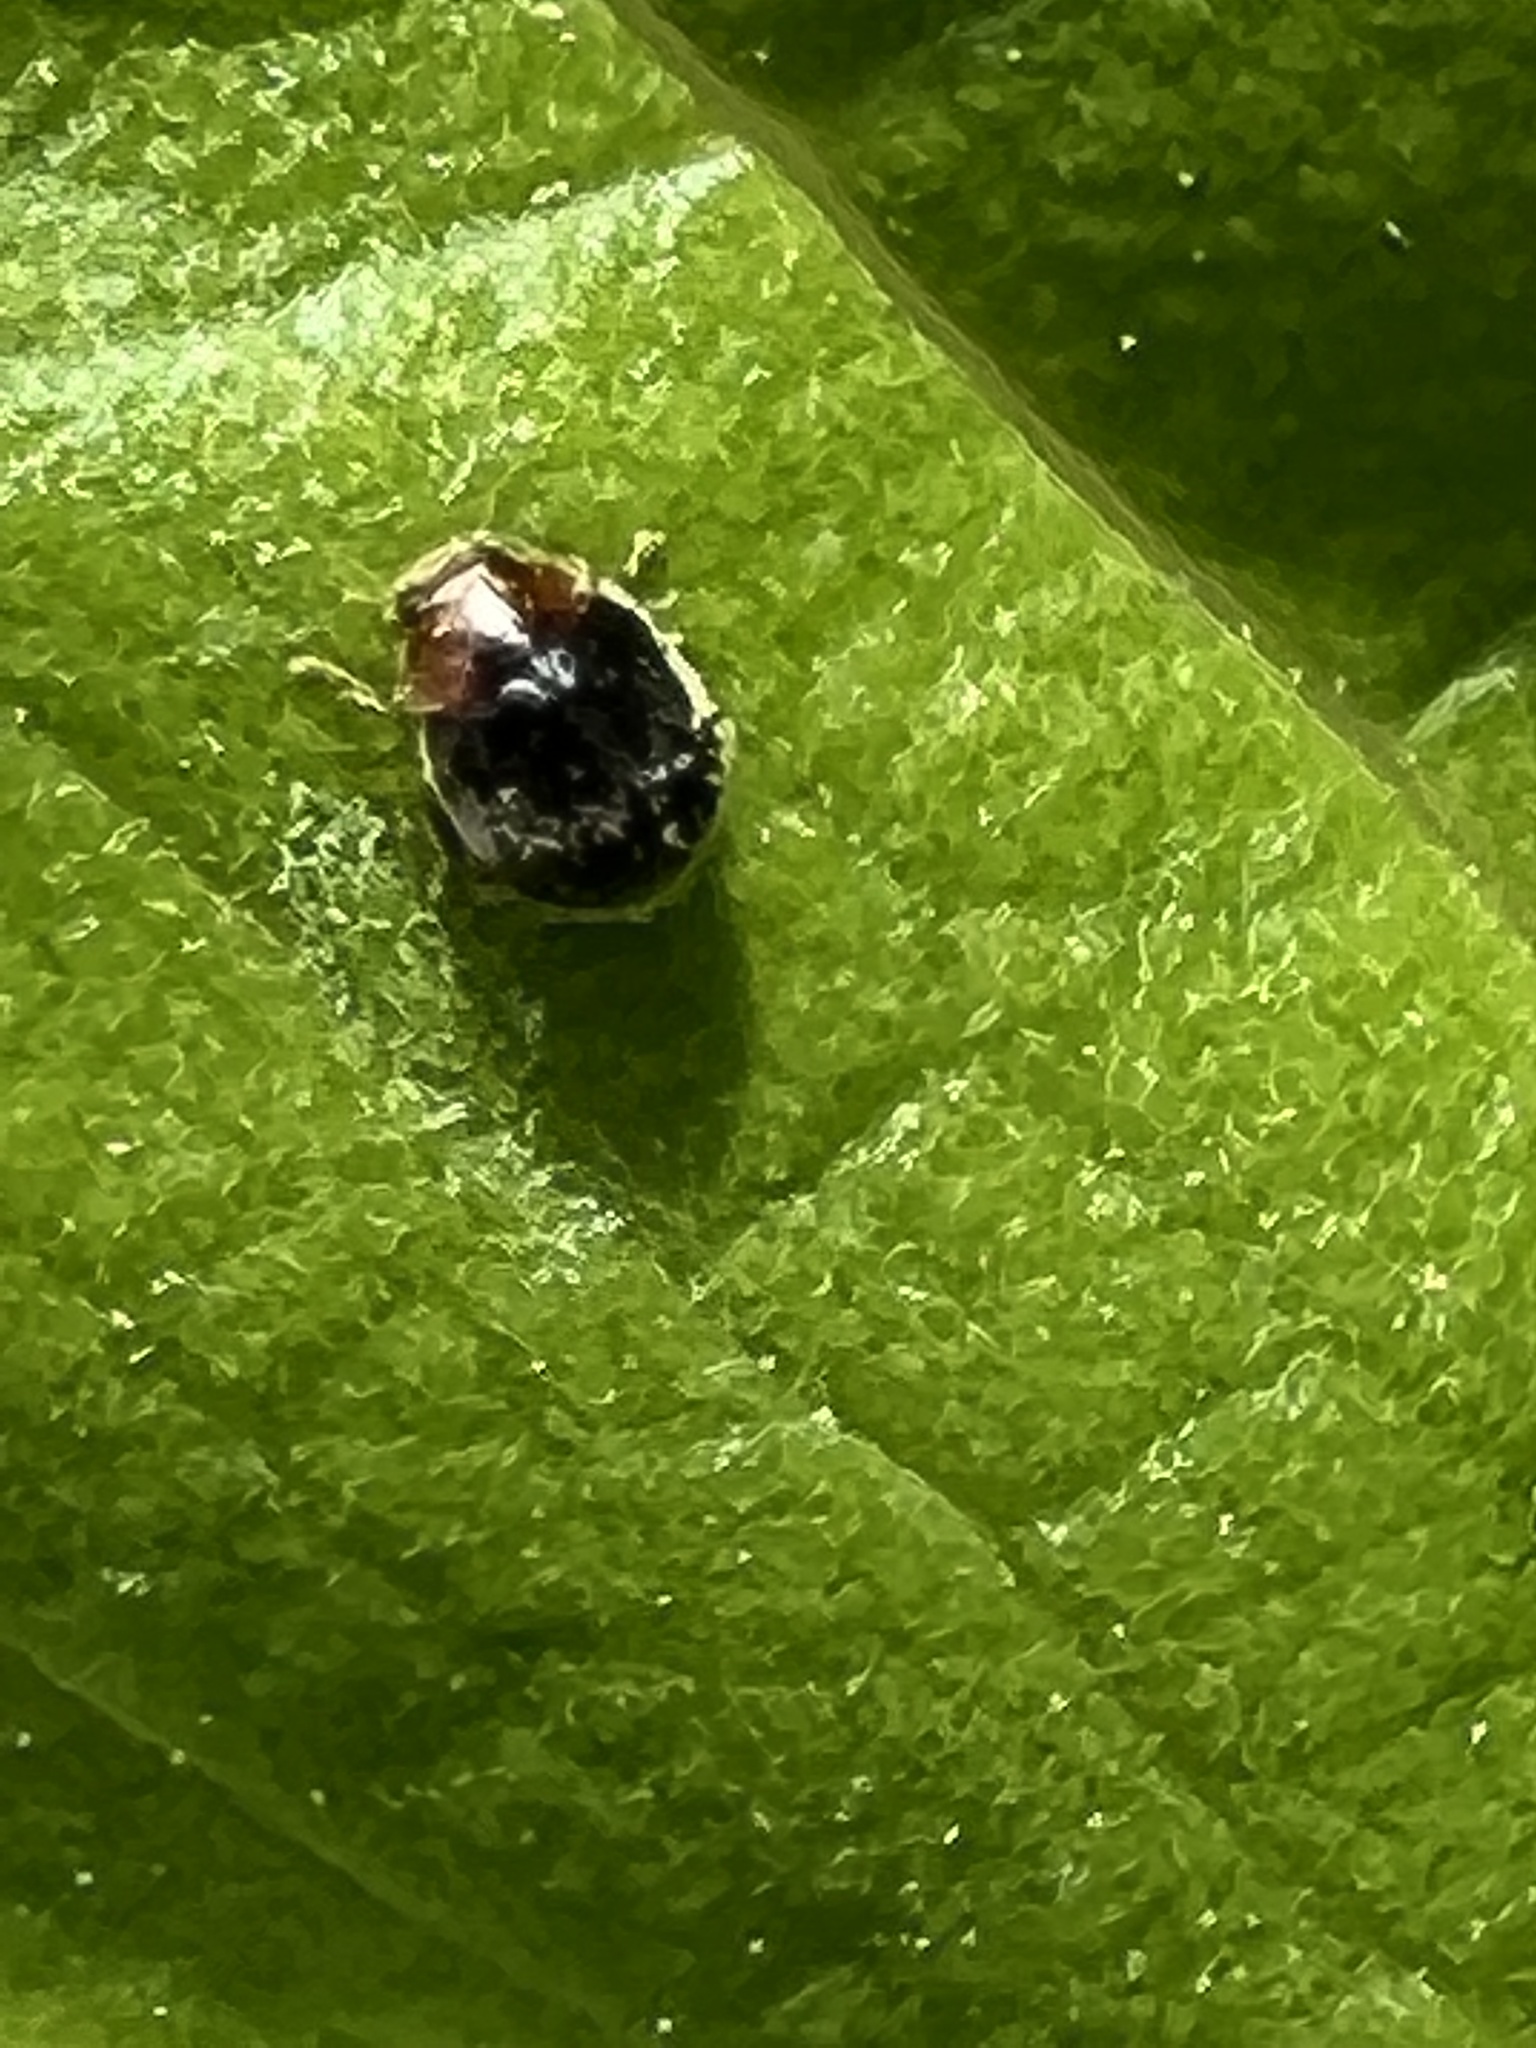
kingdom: Animalia
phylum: Arthropoda
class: Insecta
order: Coleoptera
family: Coccinellidae
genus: Cryptolaemus
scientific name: Cryptolaemus montrouzieri
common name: Mealybug destroyer
